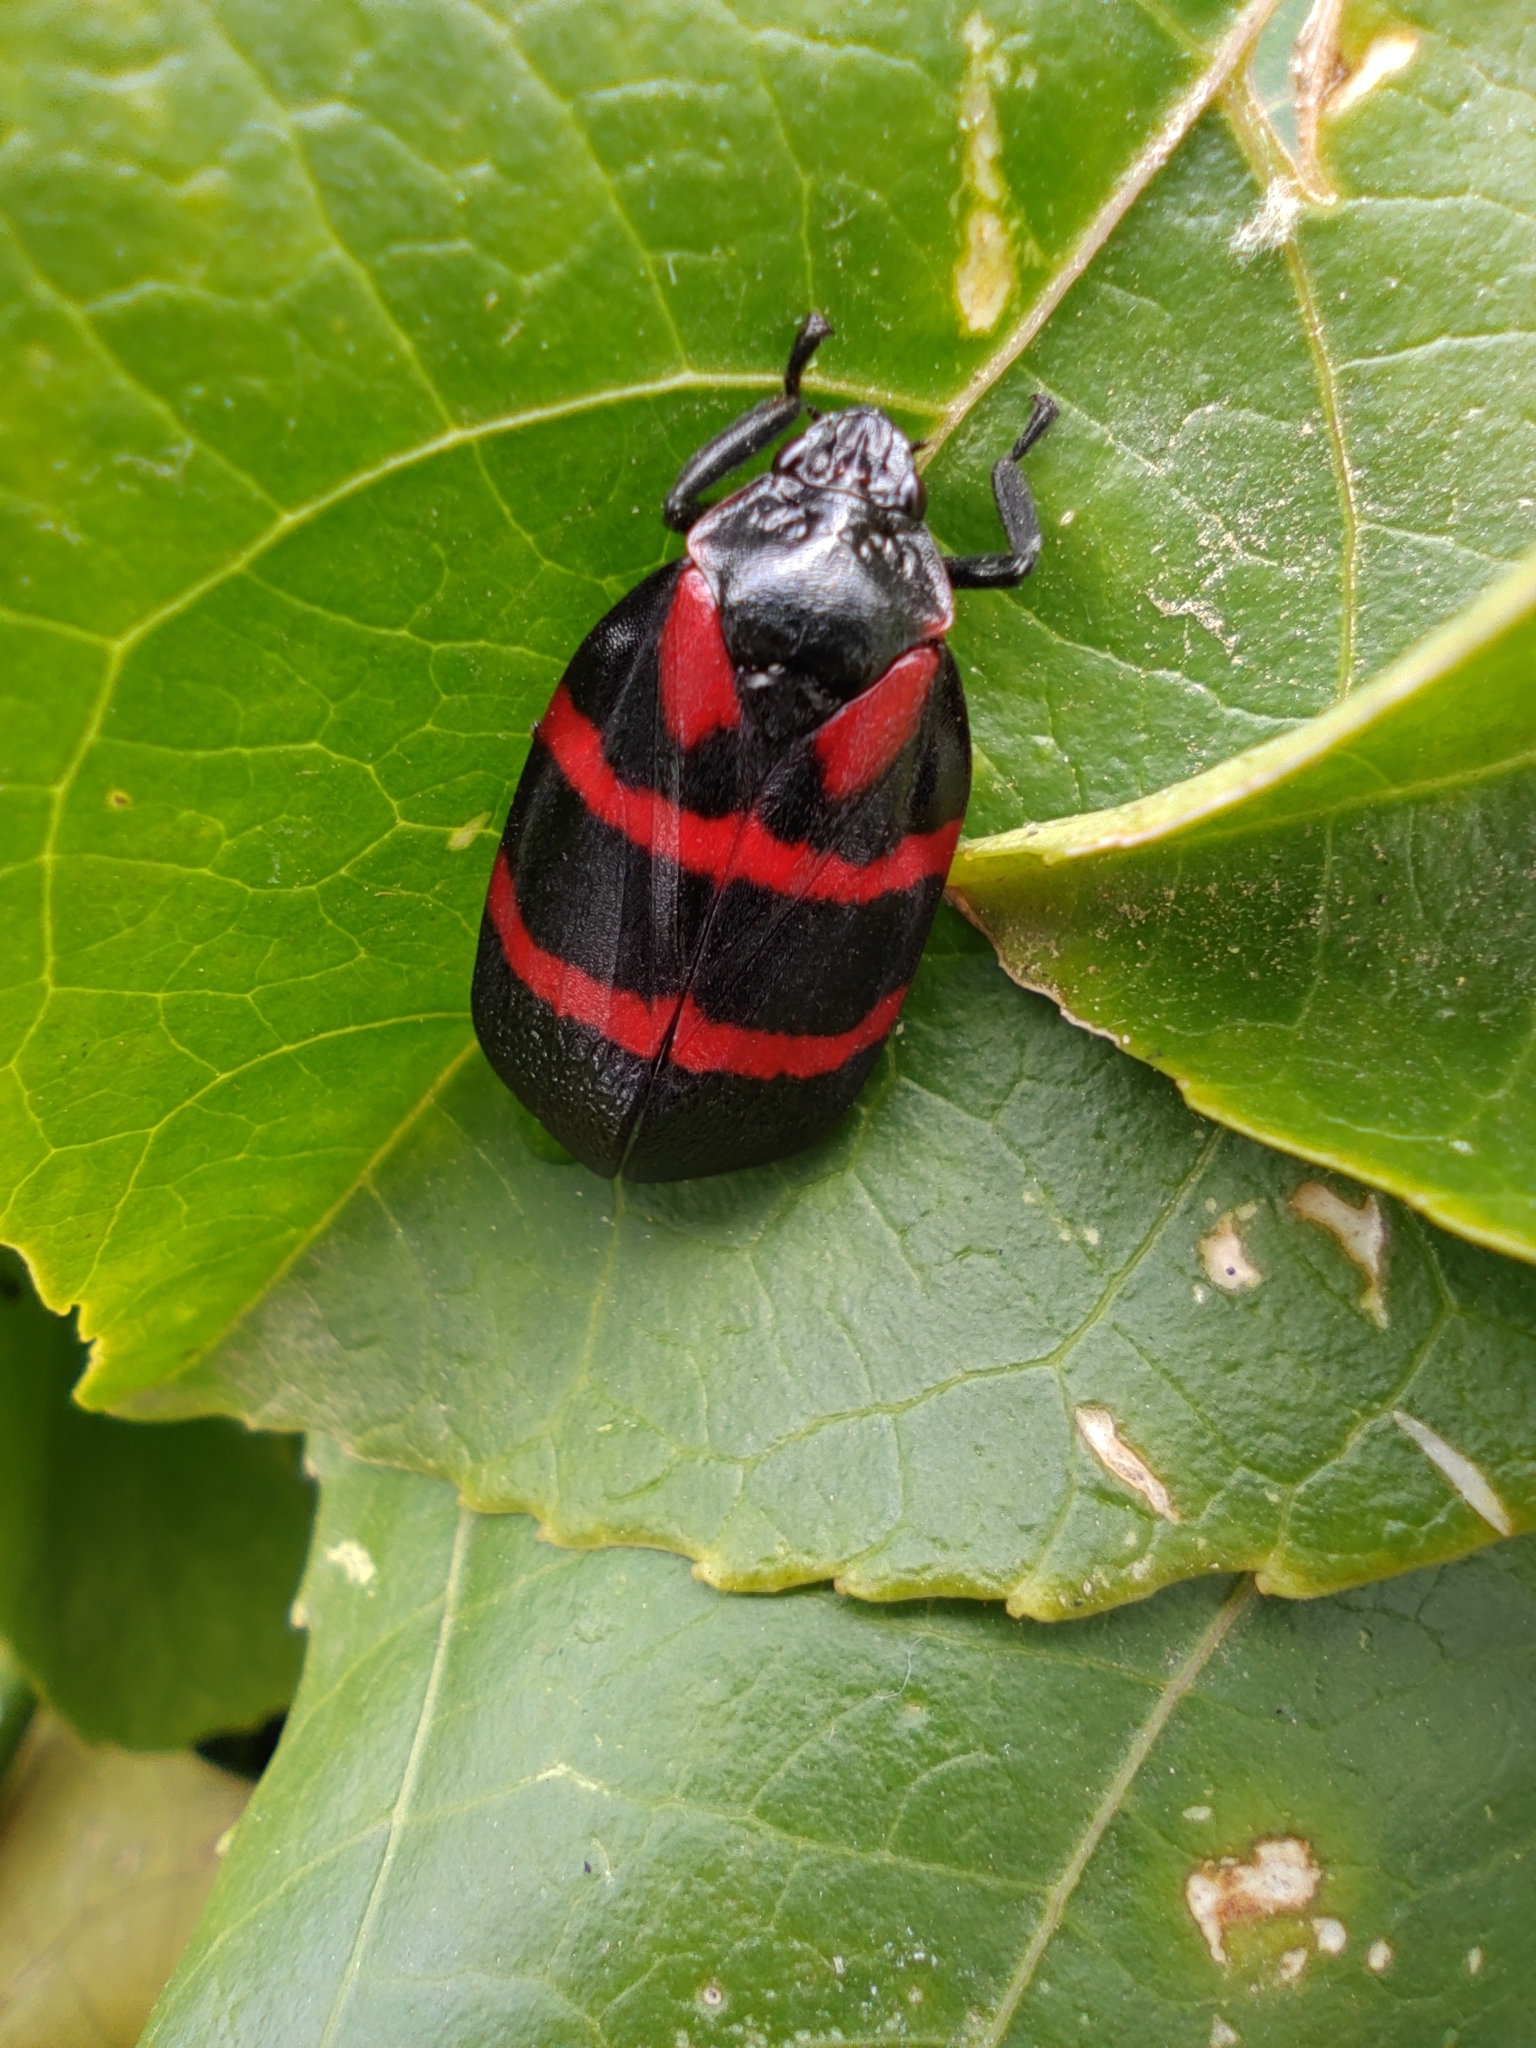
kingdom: Animalia
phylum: Arthropoda
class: Insecta
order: Hemiptera
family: Cercopidae
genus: Huaina
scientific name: Huaina inca
